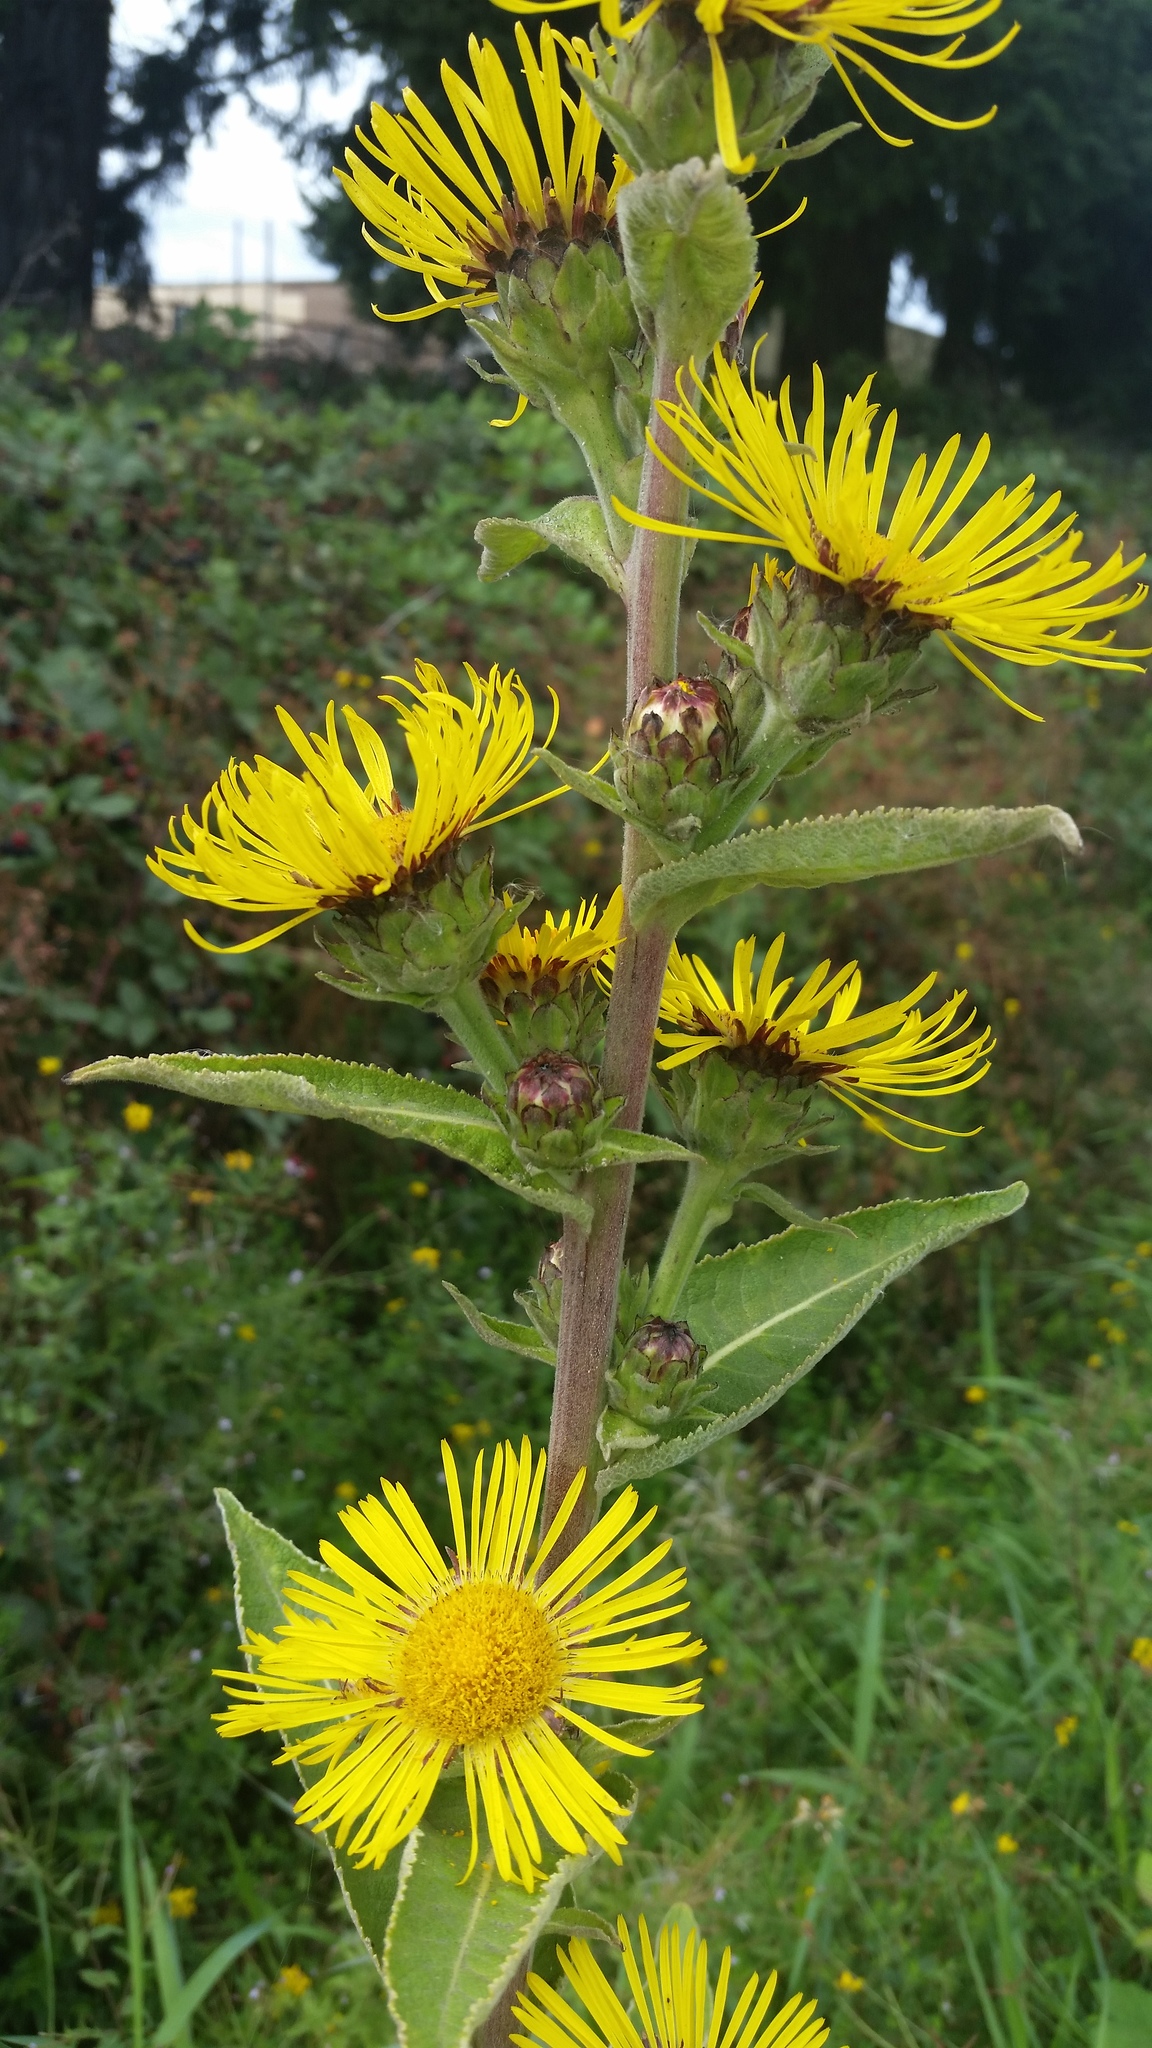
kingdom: Plantae
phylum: Tracheophyta
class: Magnoliopsida
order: Asterales
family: Asteraceae
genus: Inula
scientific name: Inula racemosa
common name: Indian elecampane
